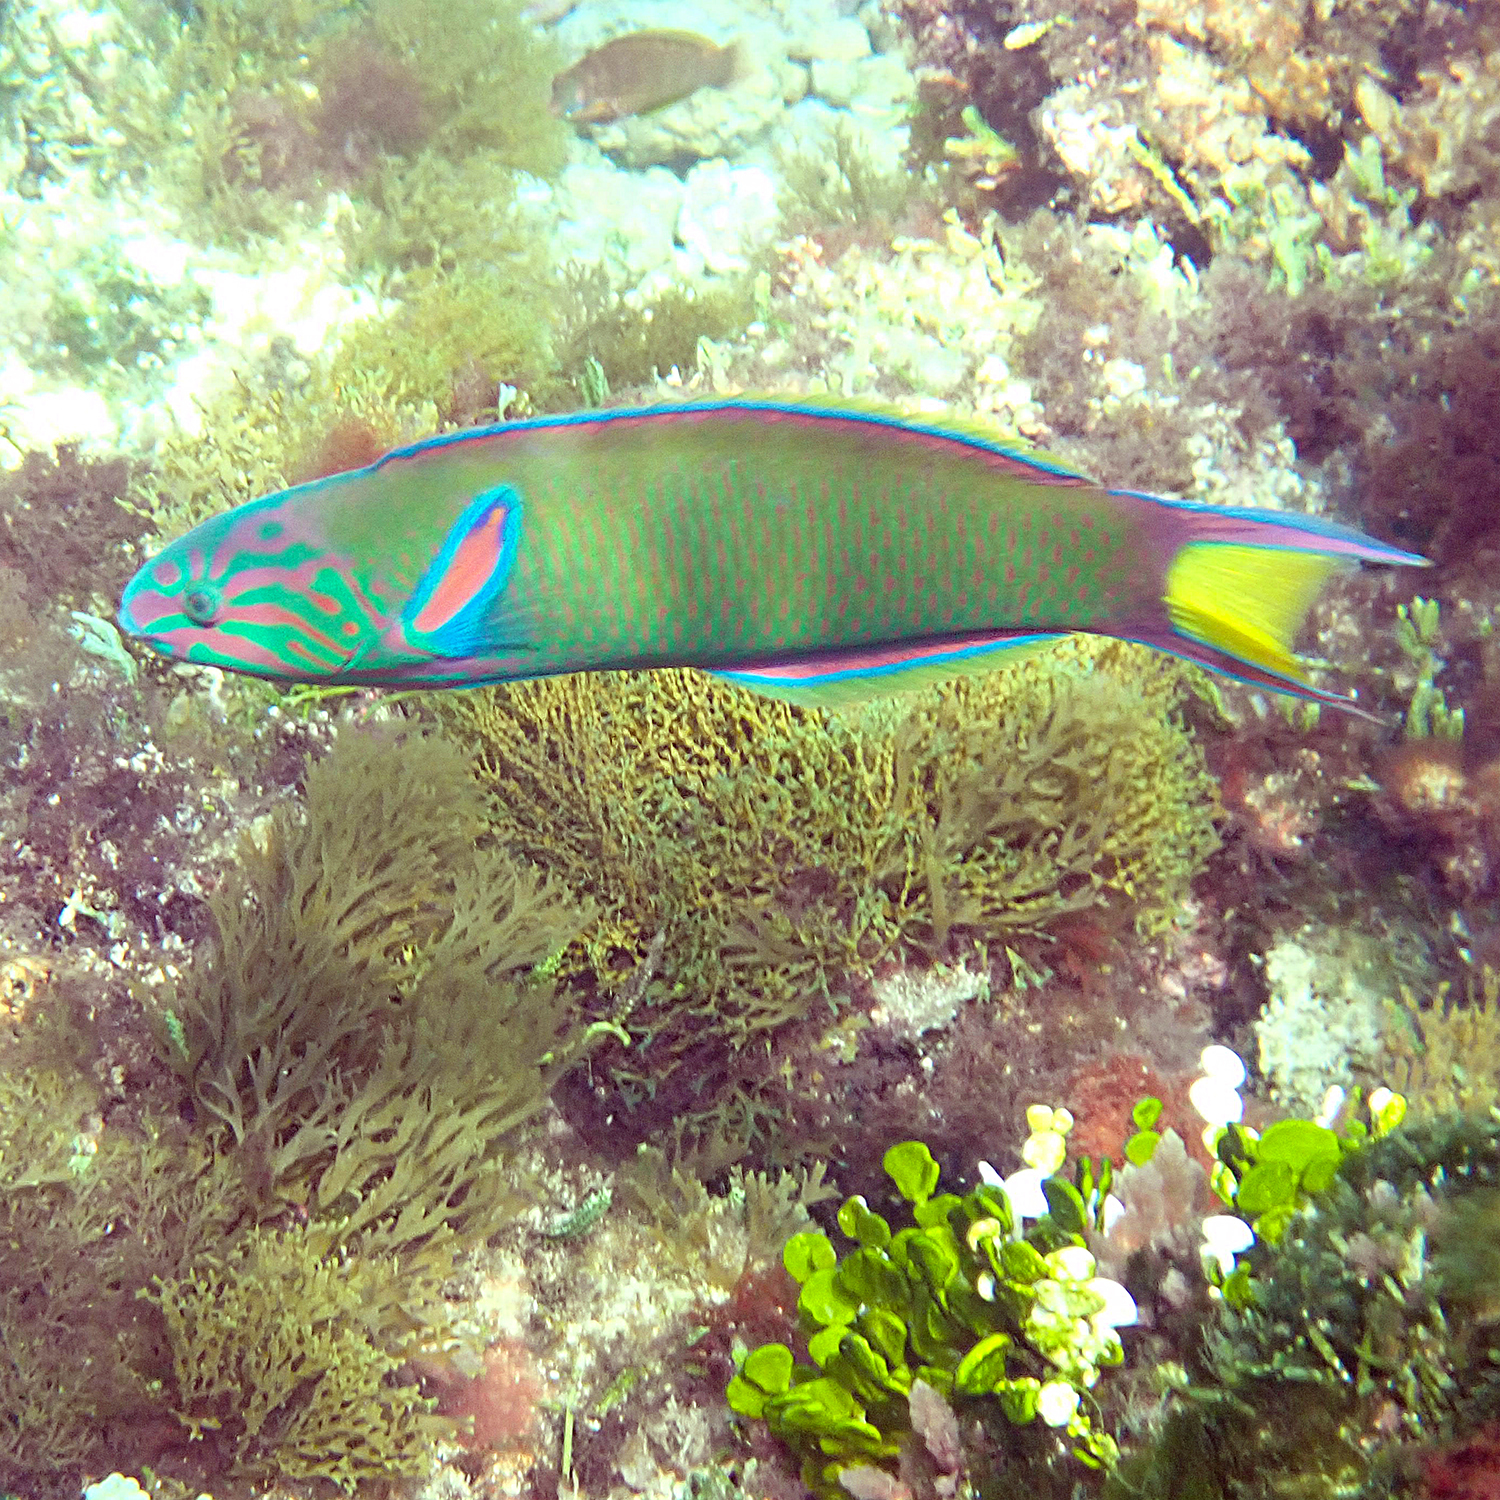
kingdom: Animalia
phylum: Chordata
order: Perciformes
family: Labridae
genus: Thalassoma
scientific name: Thalassoma lunare
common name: Blue wrasse
